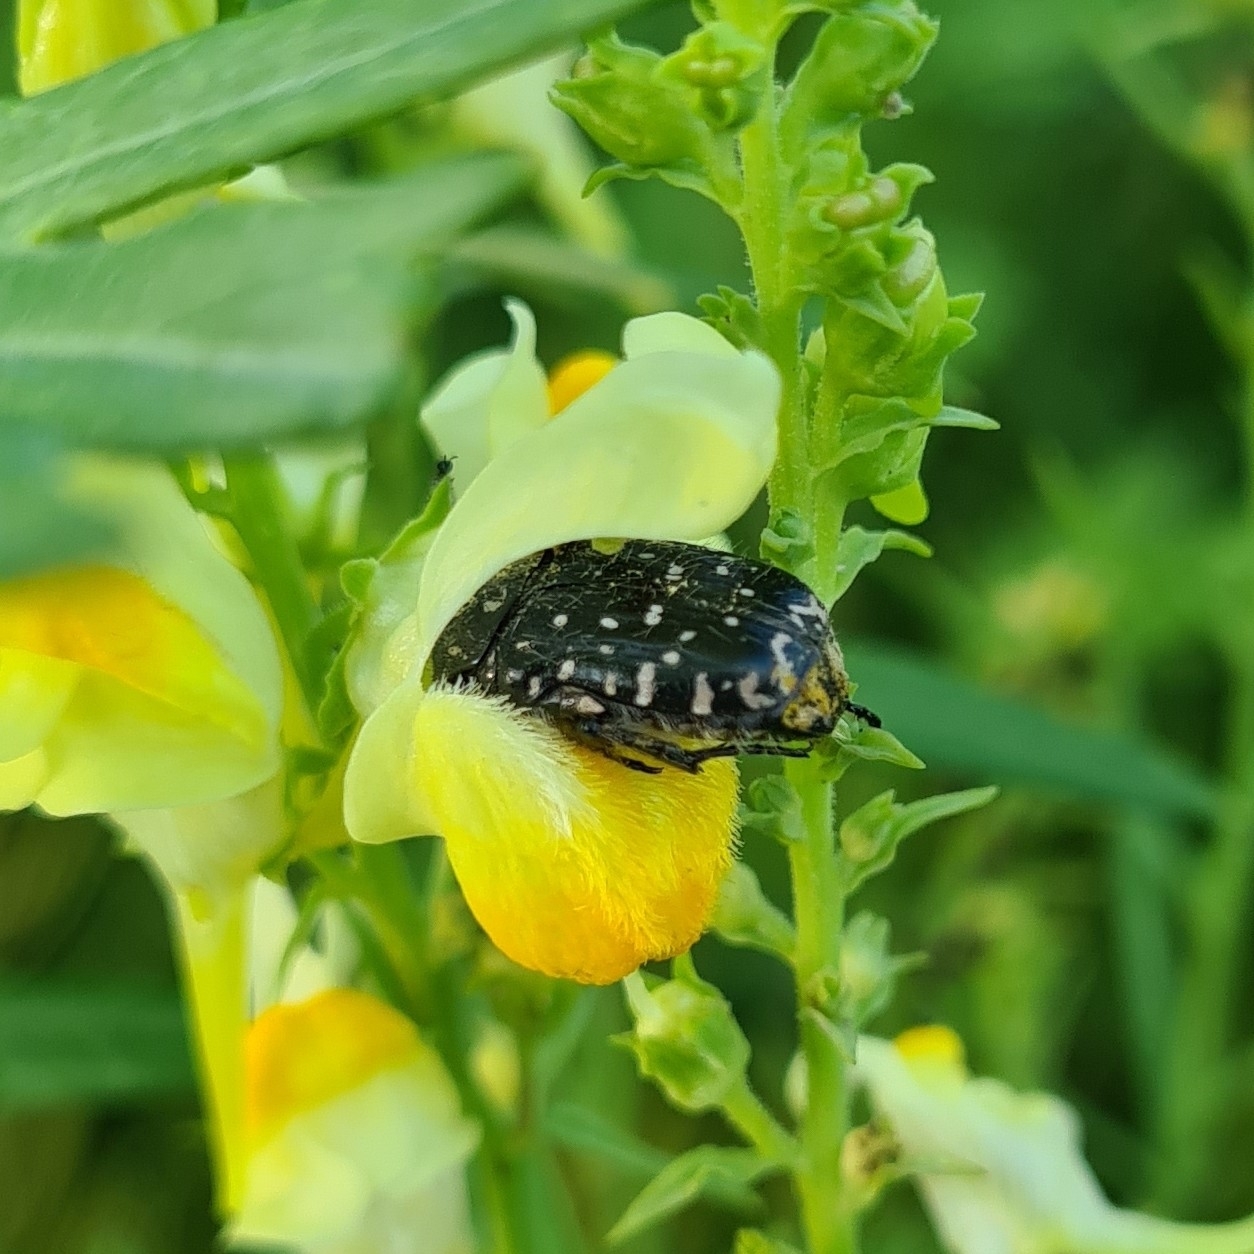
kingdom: Animalia
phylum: Arthropoda
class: Insecta
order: Coleoptera
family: Scarabaeidae
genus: Oxythyrea
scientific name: Oxythyrea funesta
